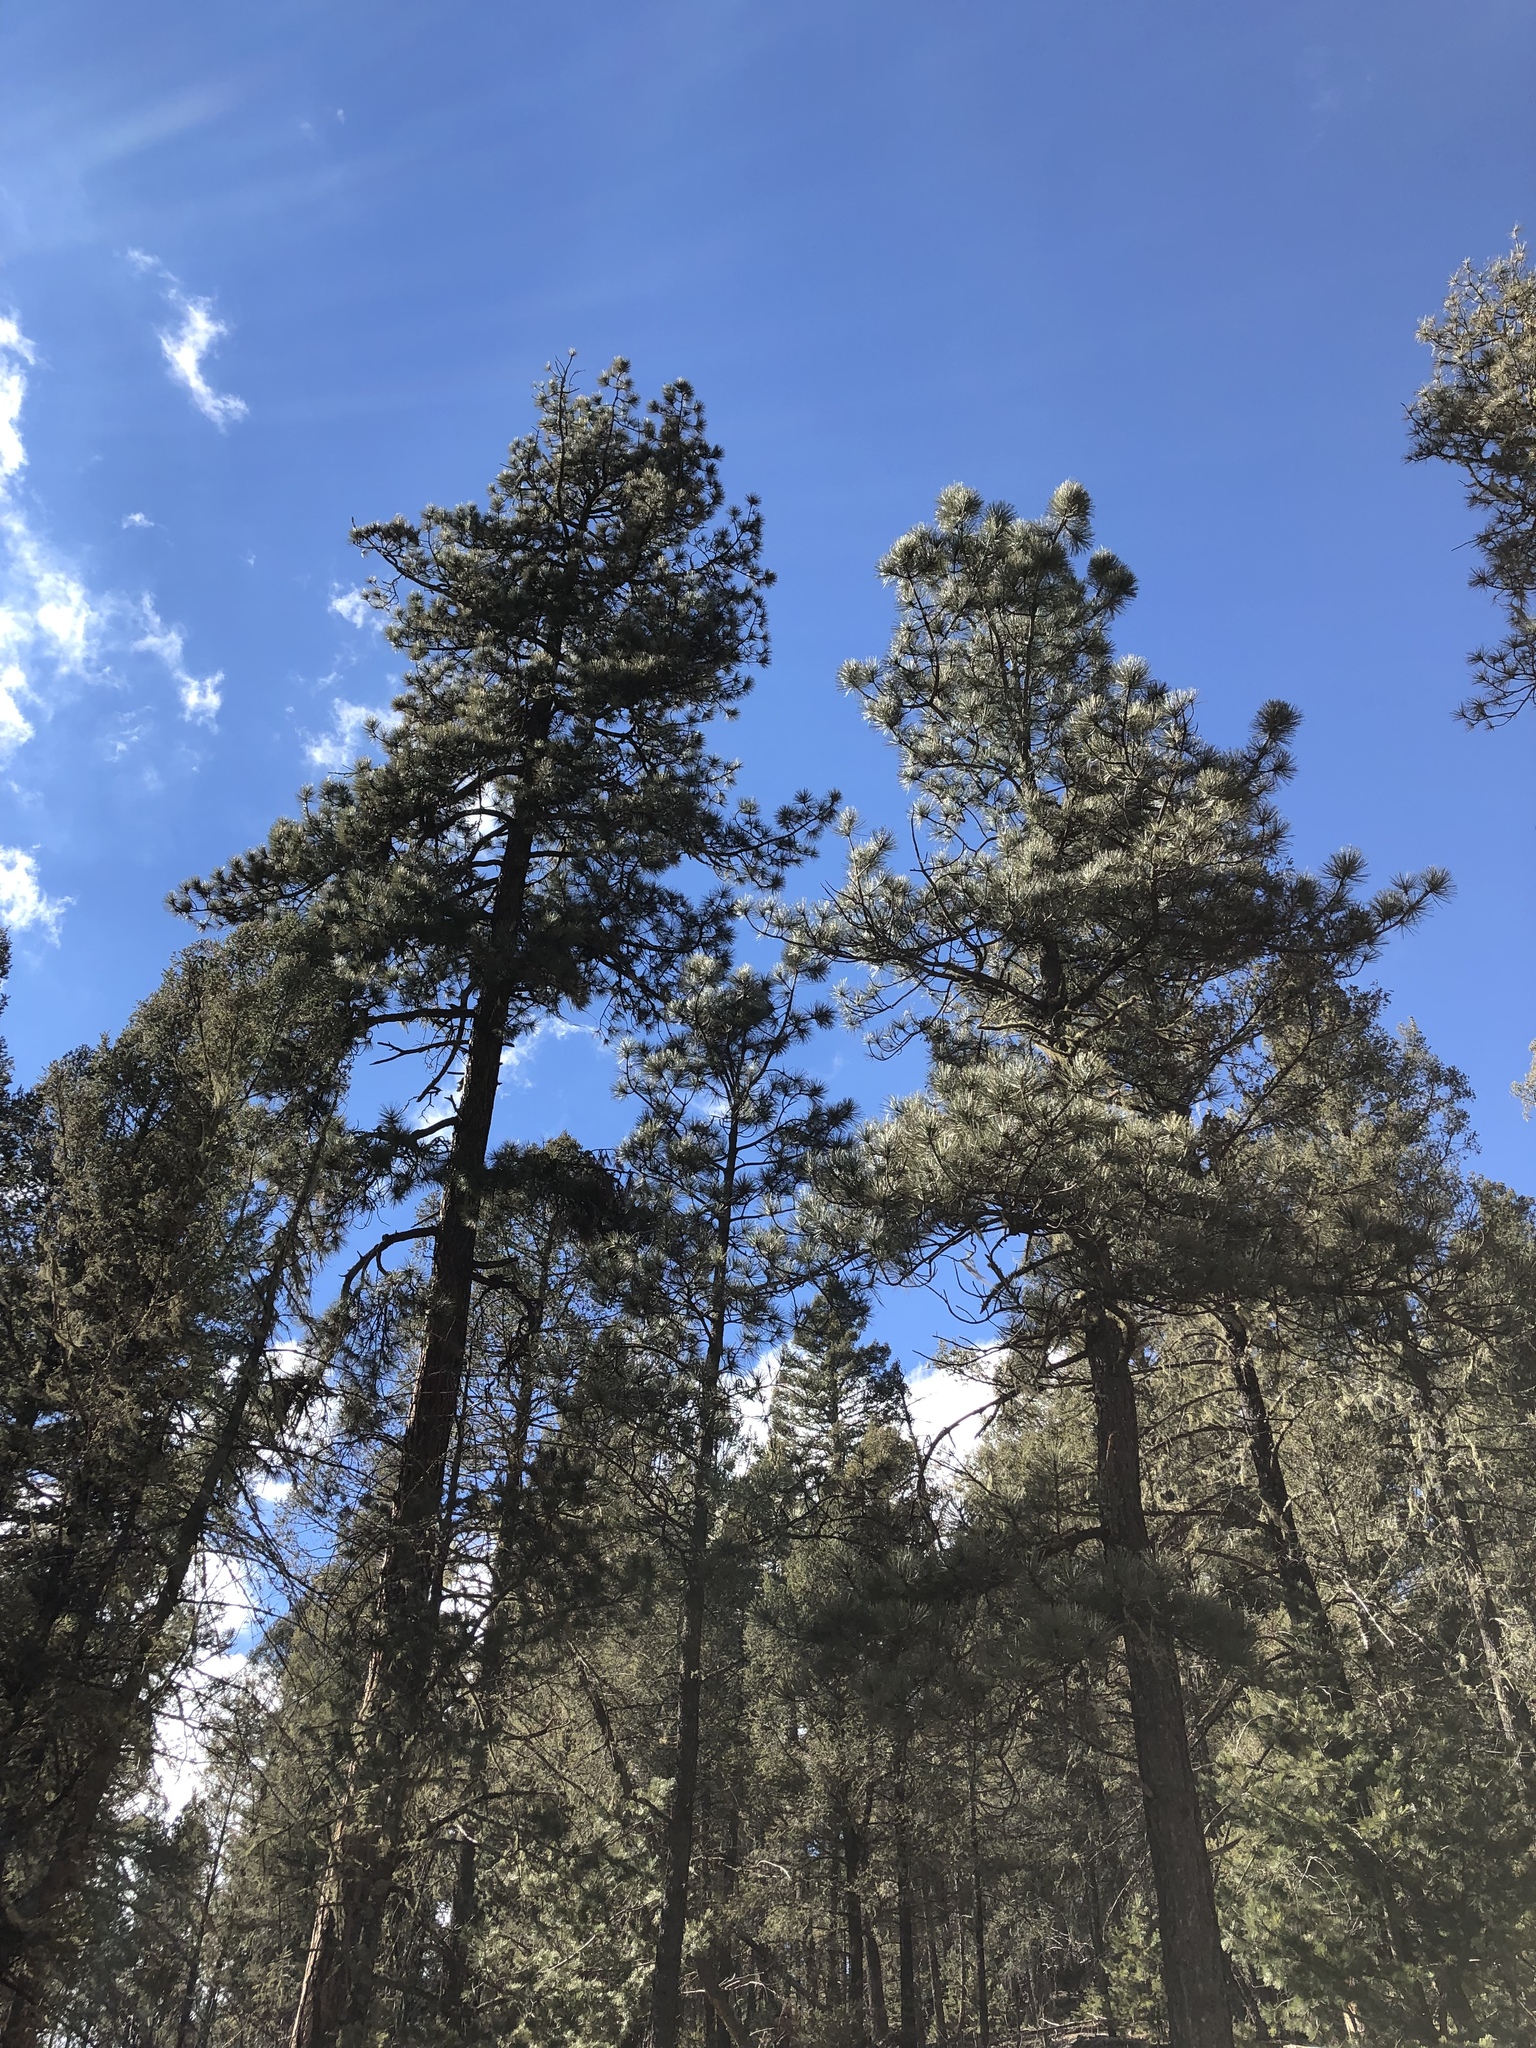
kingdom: Plantae
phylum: Tracheophyta
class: Pinopsida
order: Pinales
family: Pinaceae
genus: Pinus
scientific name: Pinus ponderosa
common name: Western yellow-pine
